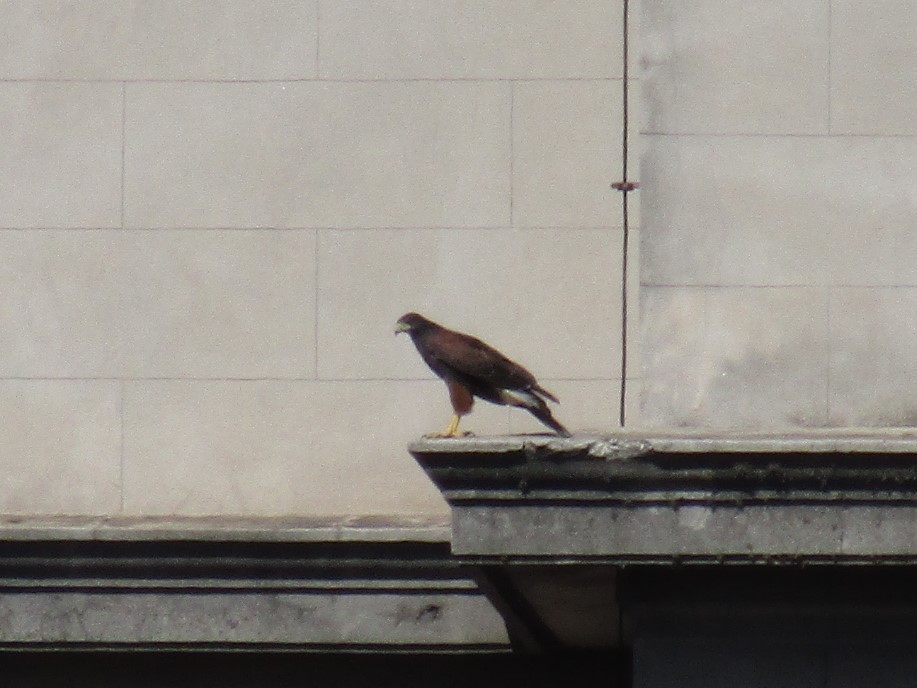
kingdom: Animalia
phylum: Chordata
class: Aves
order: Accipitriformes
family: Accipitridae
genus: Parabuteo
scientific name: Parabuteo unicinctus
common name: Harris's hawk
